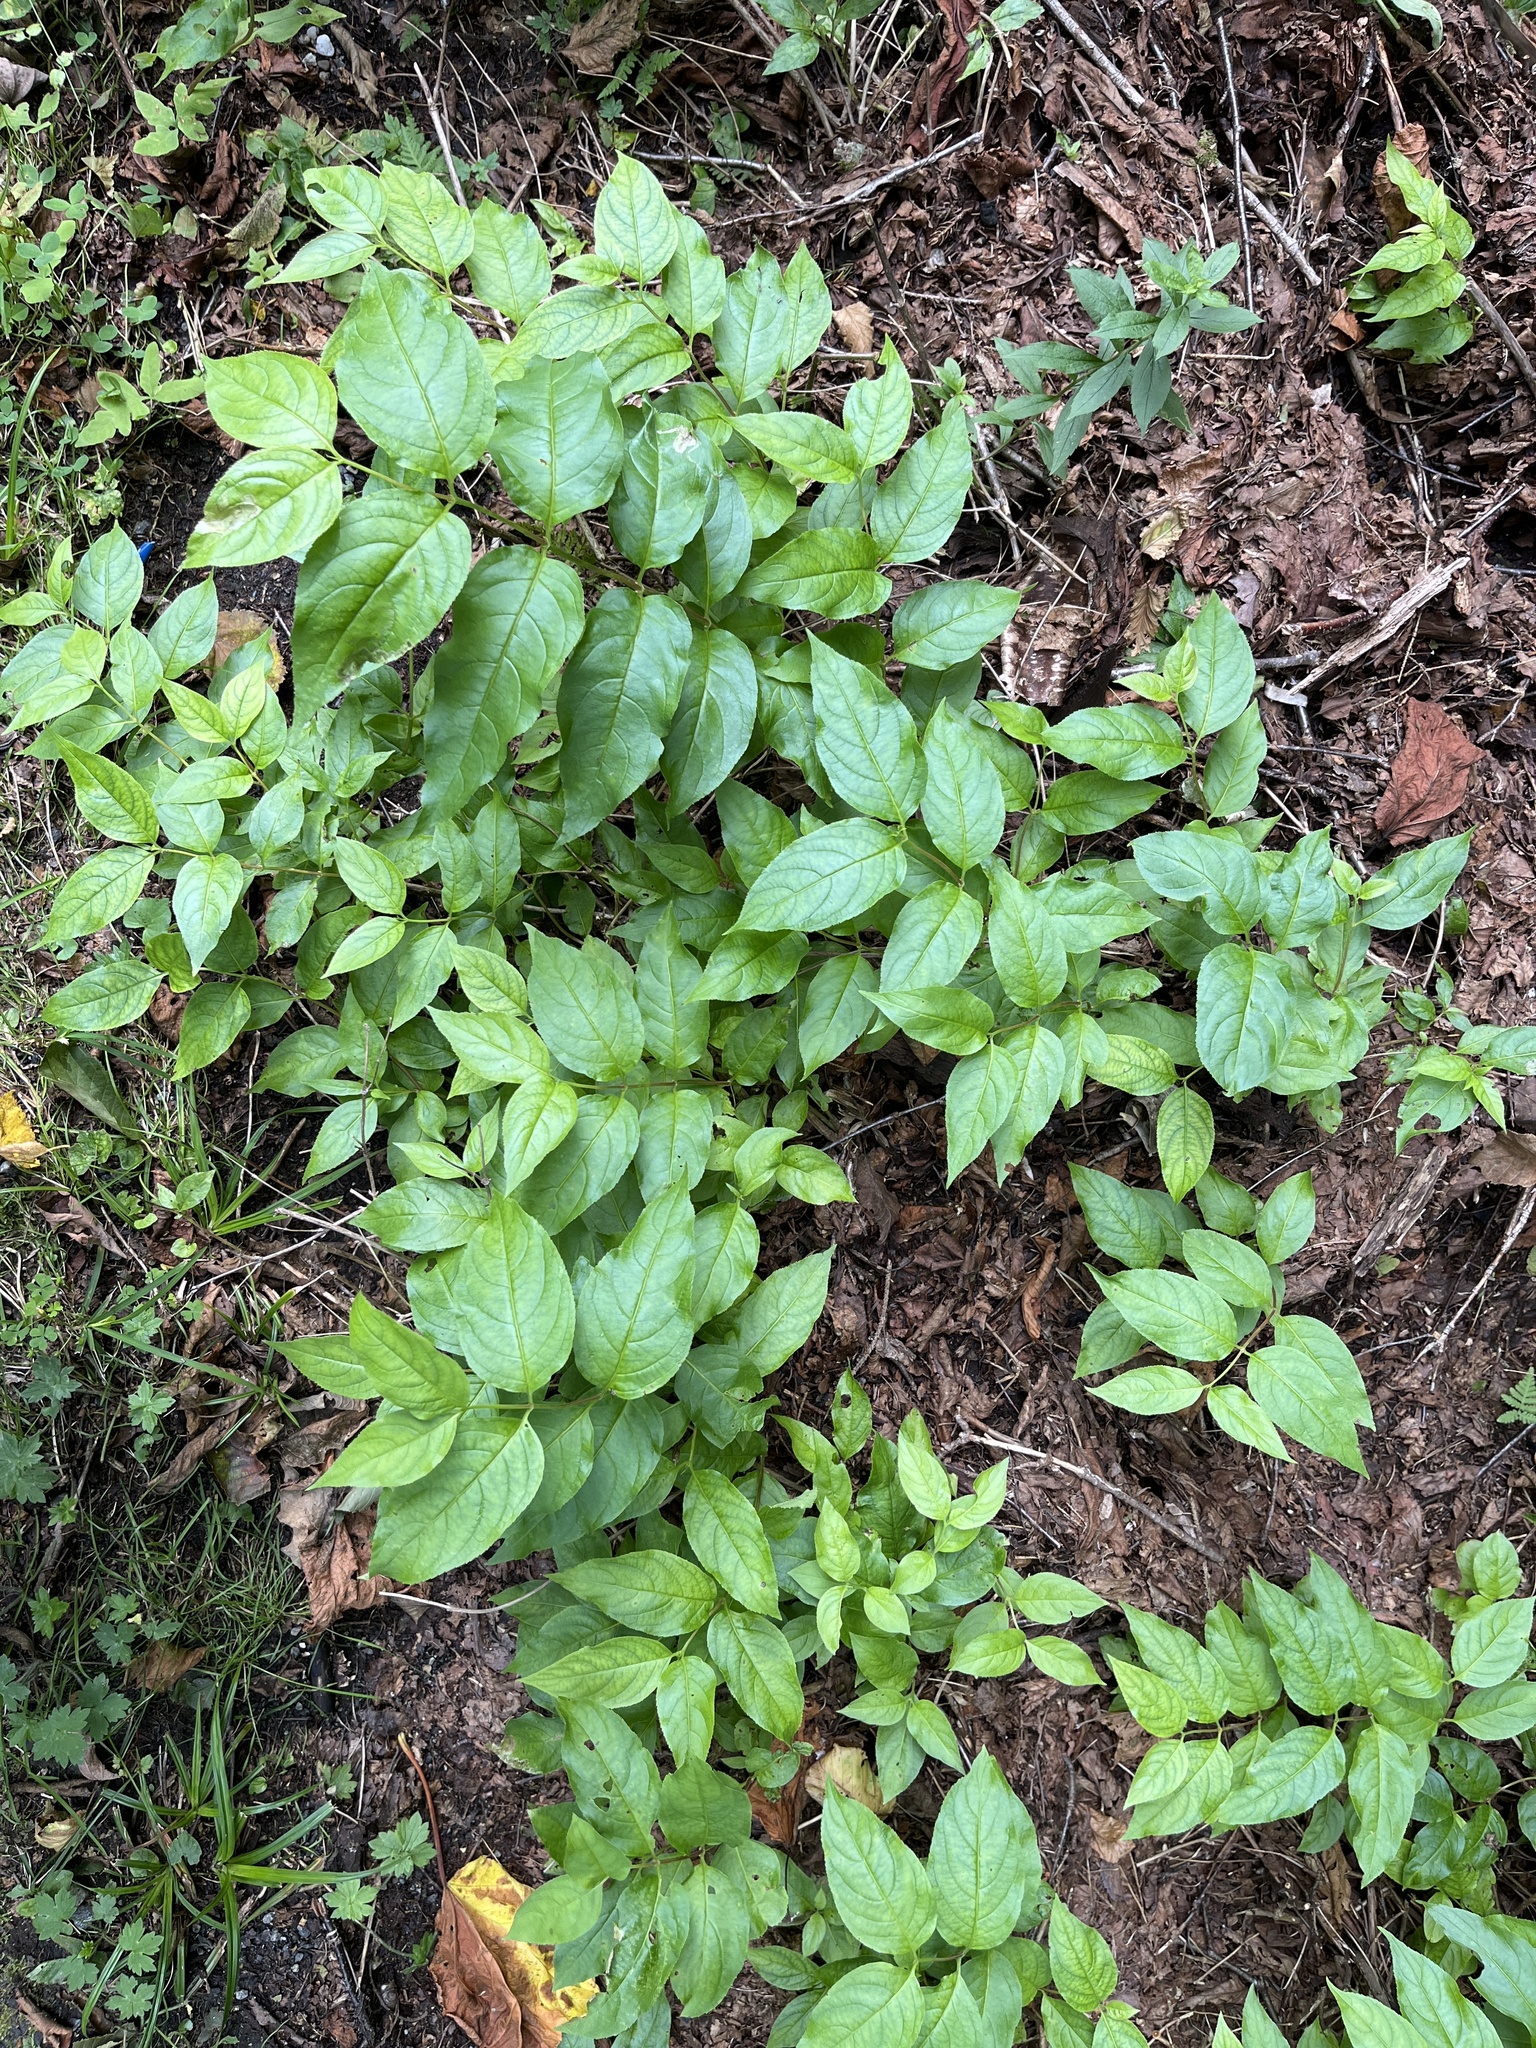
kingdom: Plantae
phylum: Tracheophyta
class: Magnoliopsida
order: Dipsacales
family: Caprifoliaceae
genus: Diervilla
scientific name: Diervilla lonicera
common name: Bush-honeysuckle
